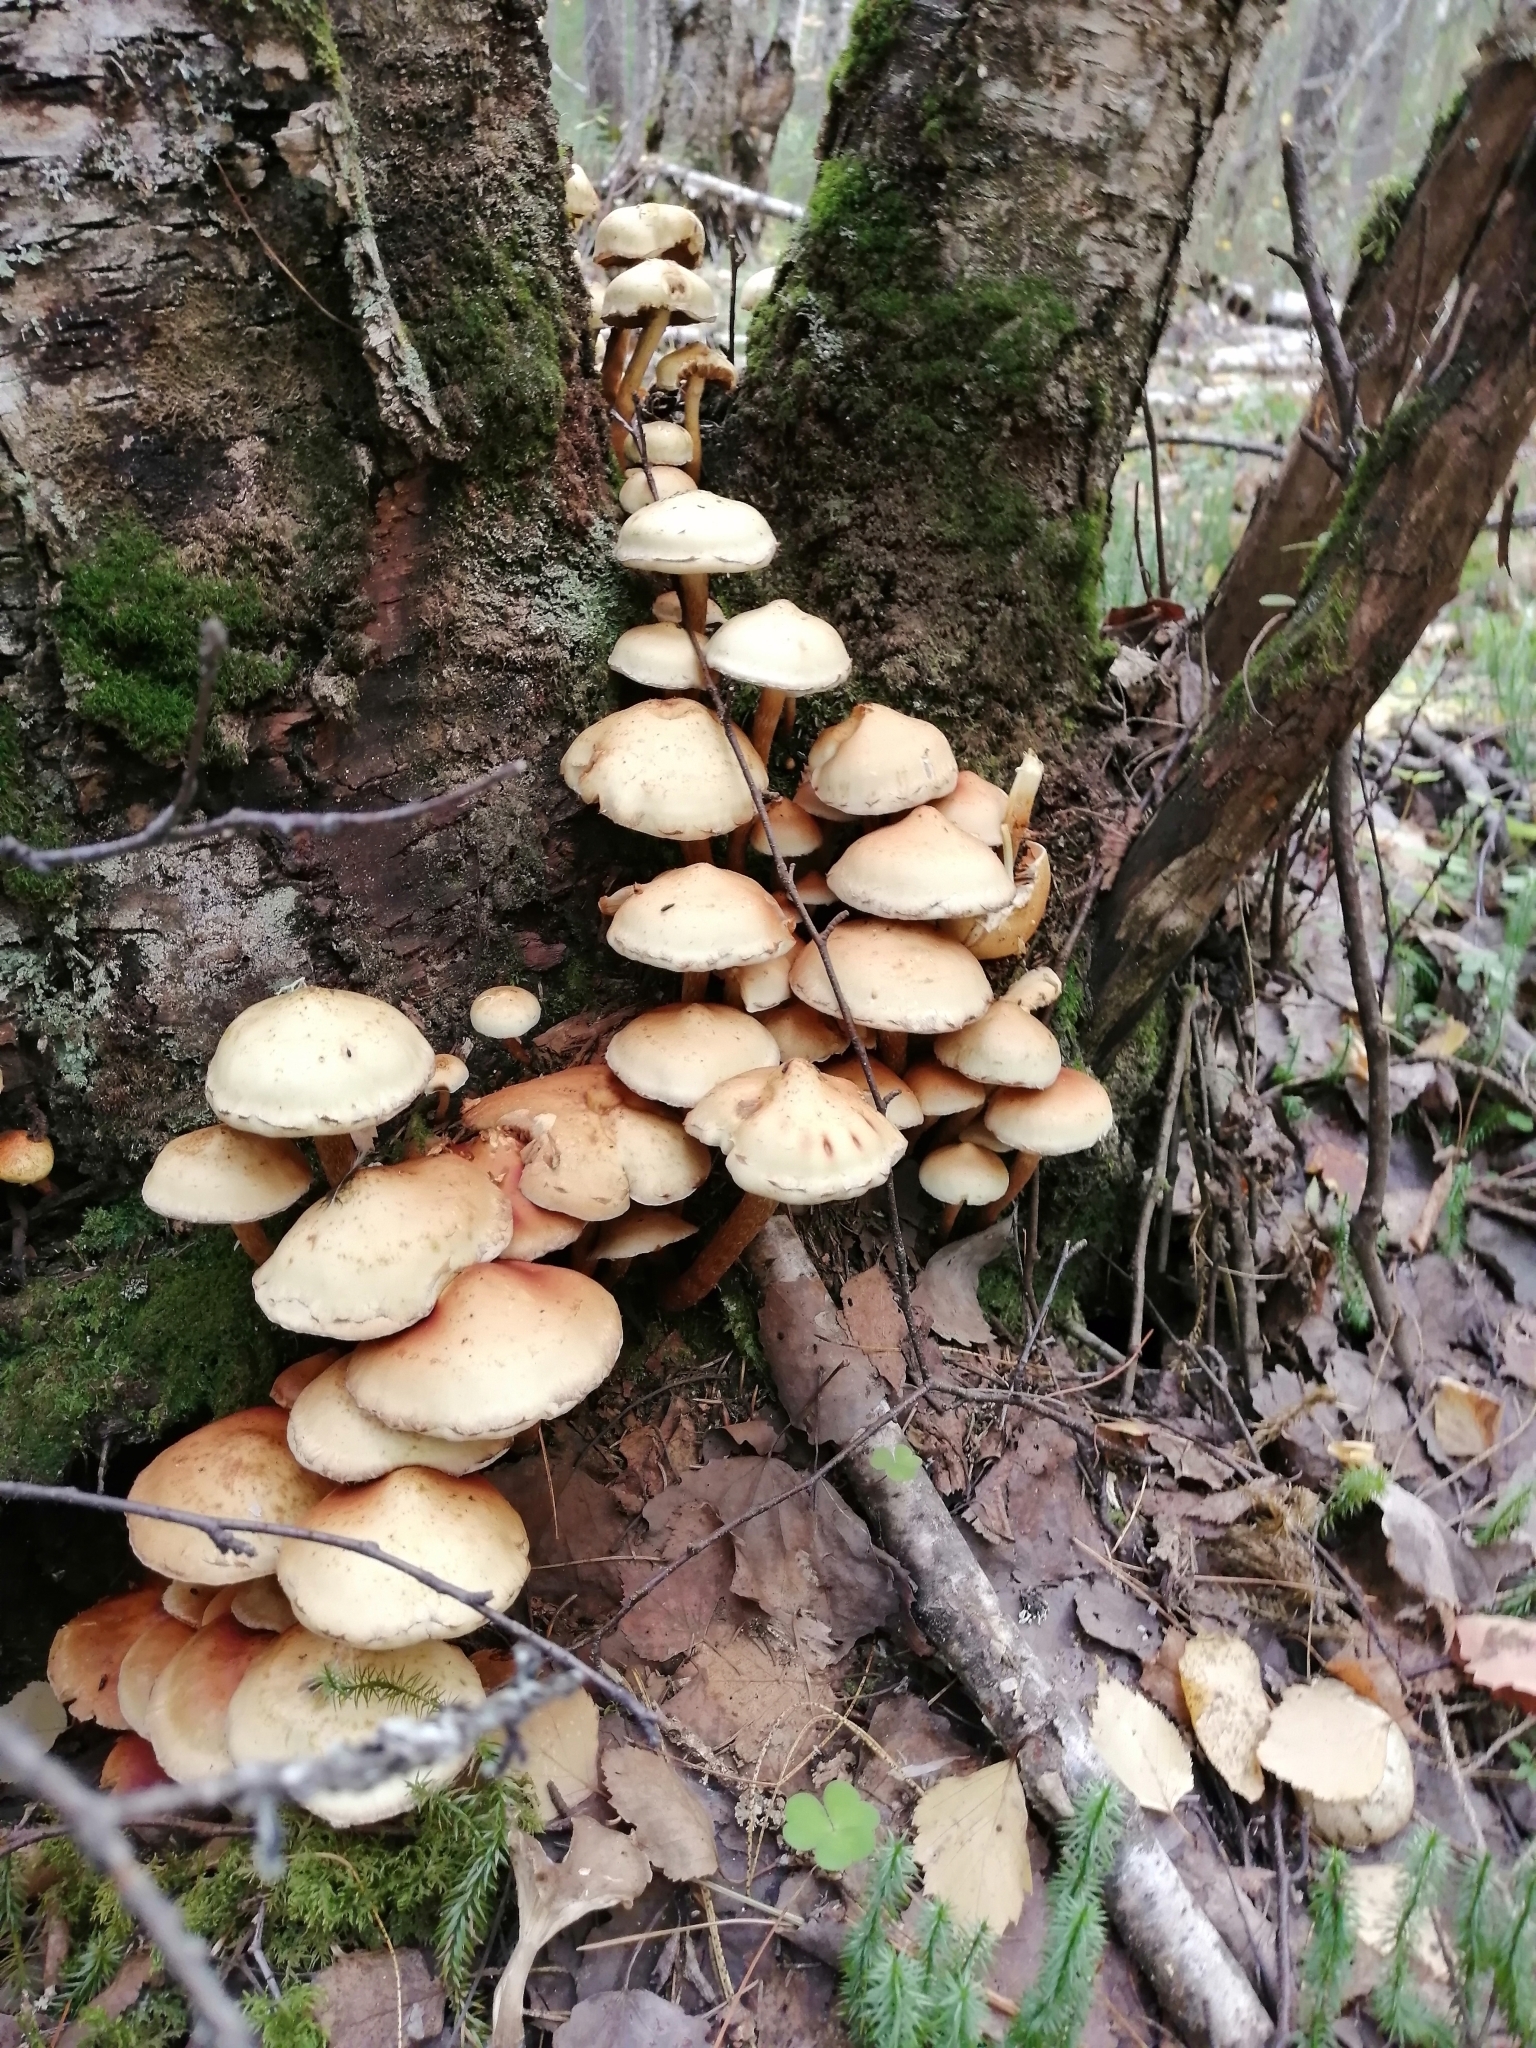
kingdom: Fungi
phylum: Basidiomycota
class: Agaricomycetes
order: Agaricales
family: Strophariaceae
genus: Kuehneromyces
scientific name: Kuehneromyces mutabilis
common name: Sheathed woodtuft
